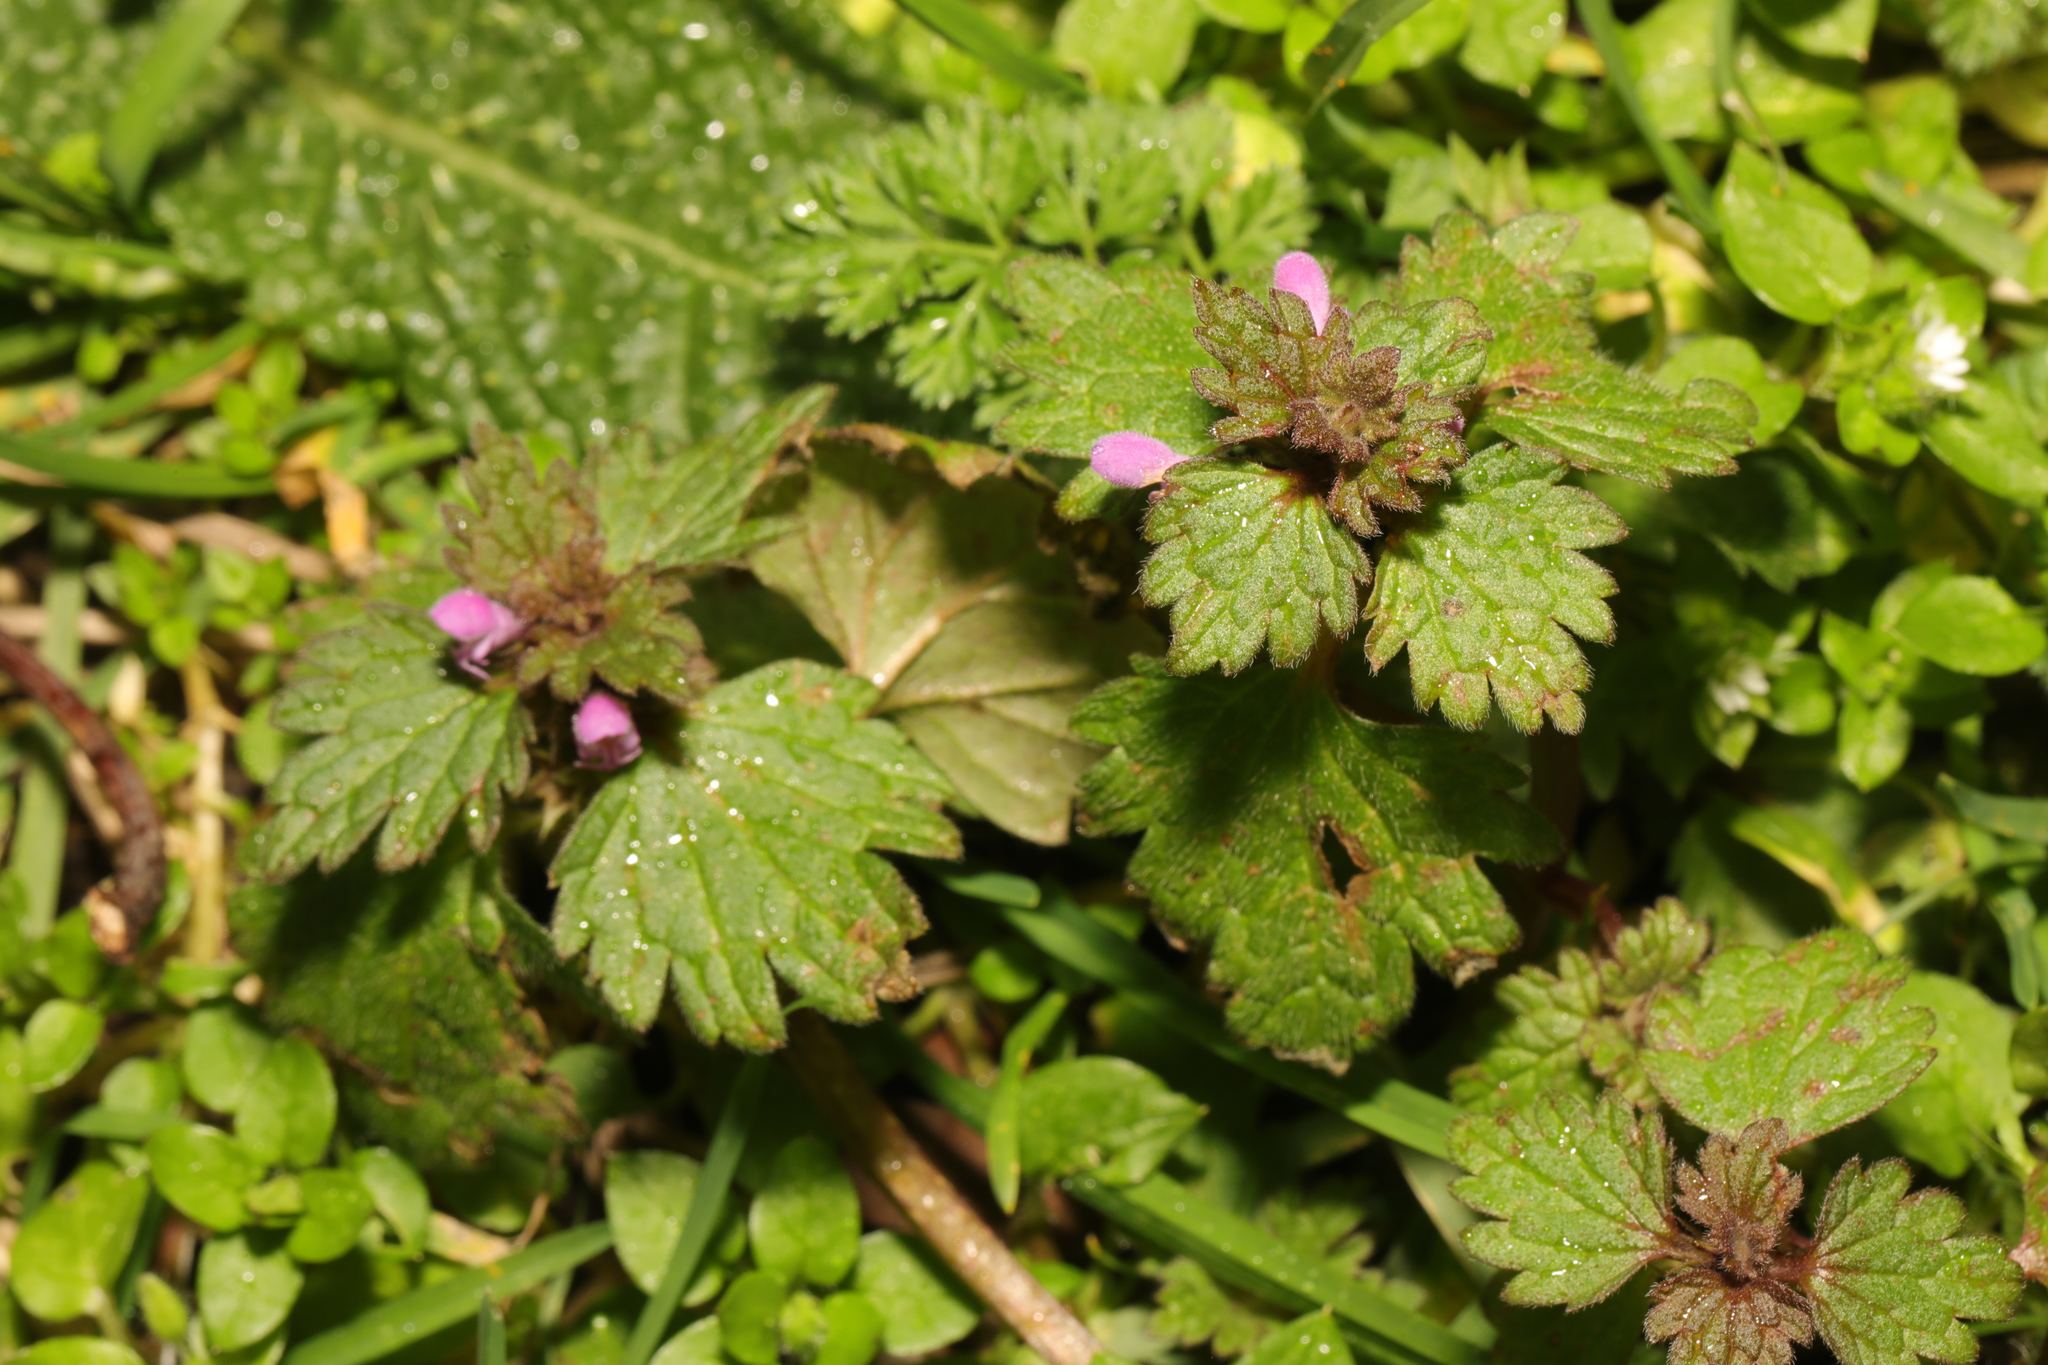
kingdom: Plantae
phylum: Tracheophyta
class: Magnoliopsida
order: Lamiales
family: Lamiaceae
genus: Lamium
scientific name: Lamium hybridum
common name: Cut-leaved dead-nettle
